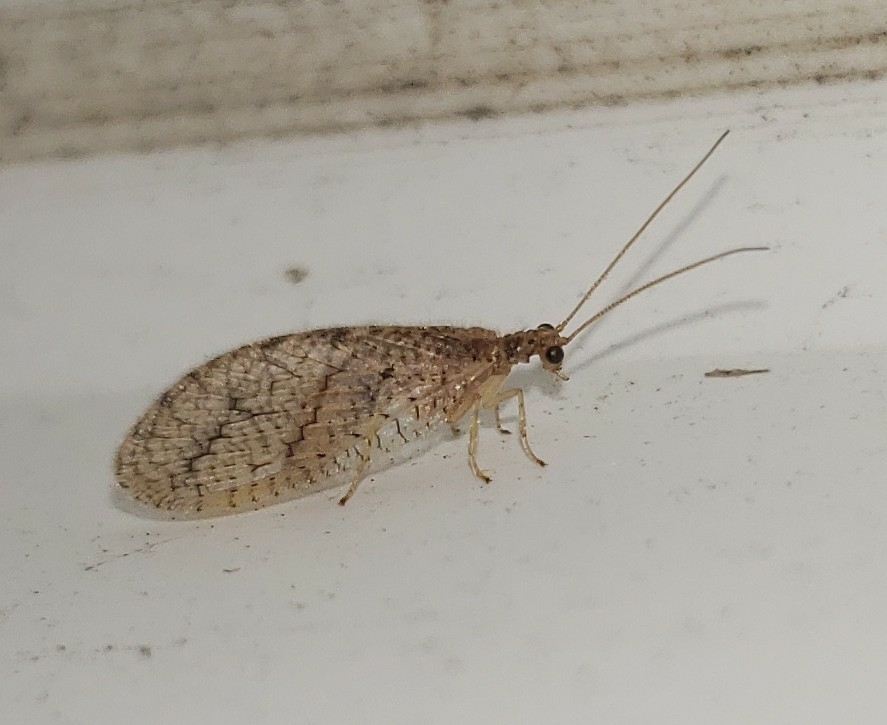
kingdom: Animalia
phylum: Arthropoda
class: Insecta
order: Neuroptera
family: Hemerobiidae
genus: Micromus
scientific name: Micromus posticus
